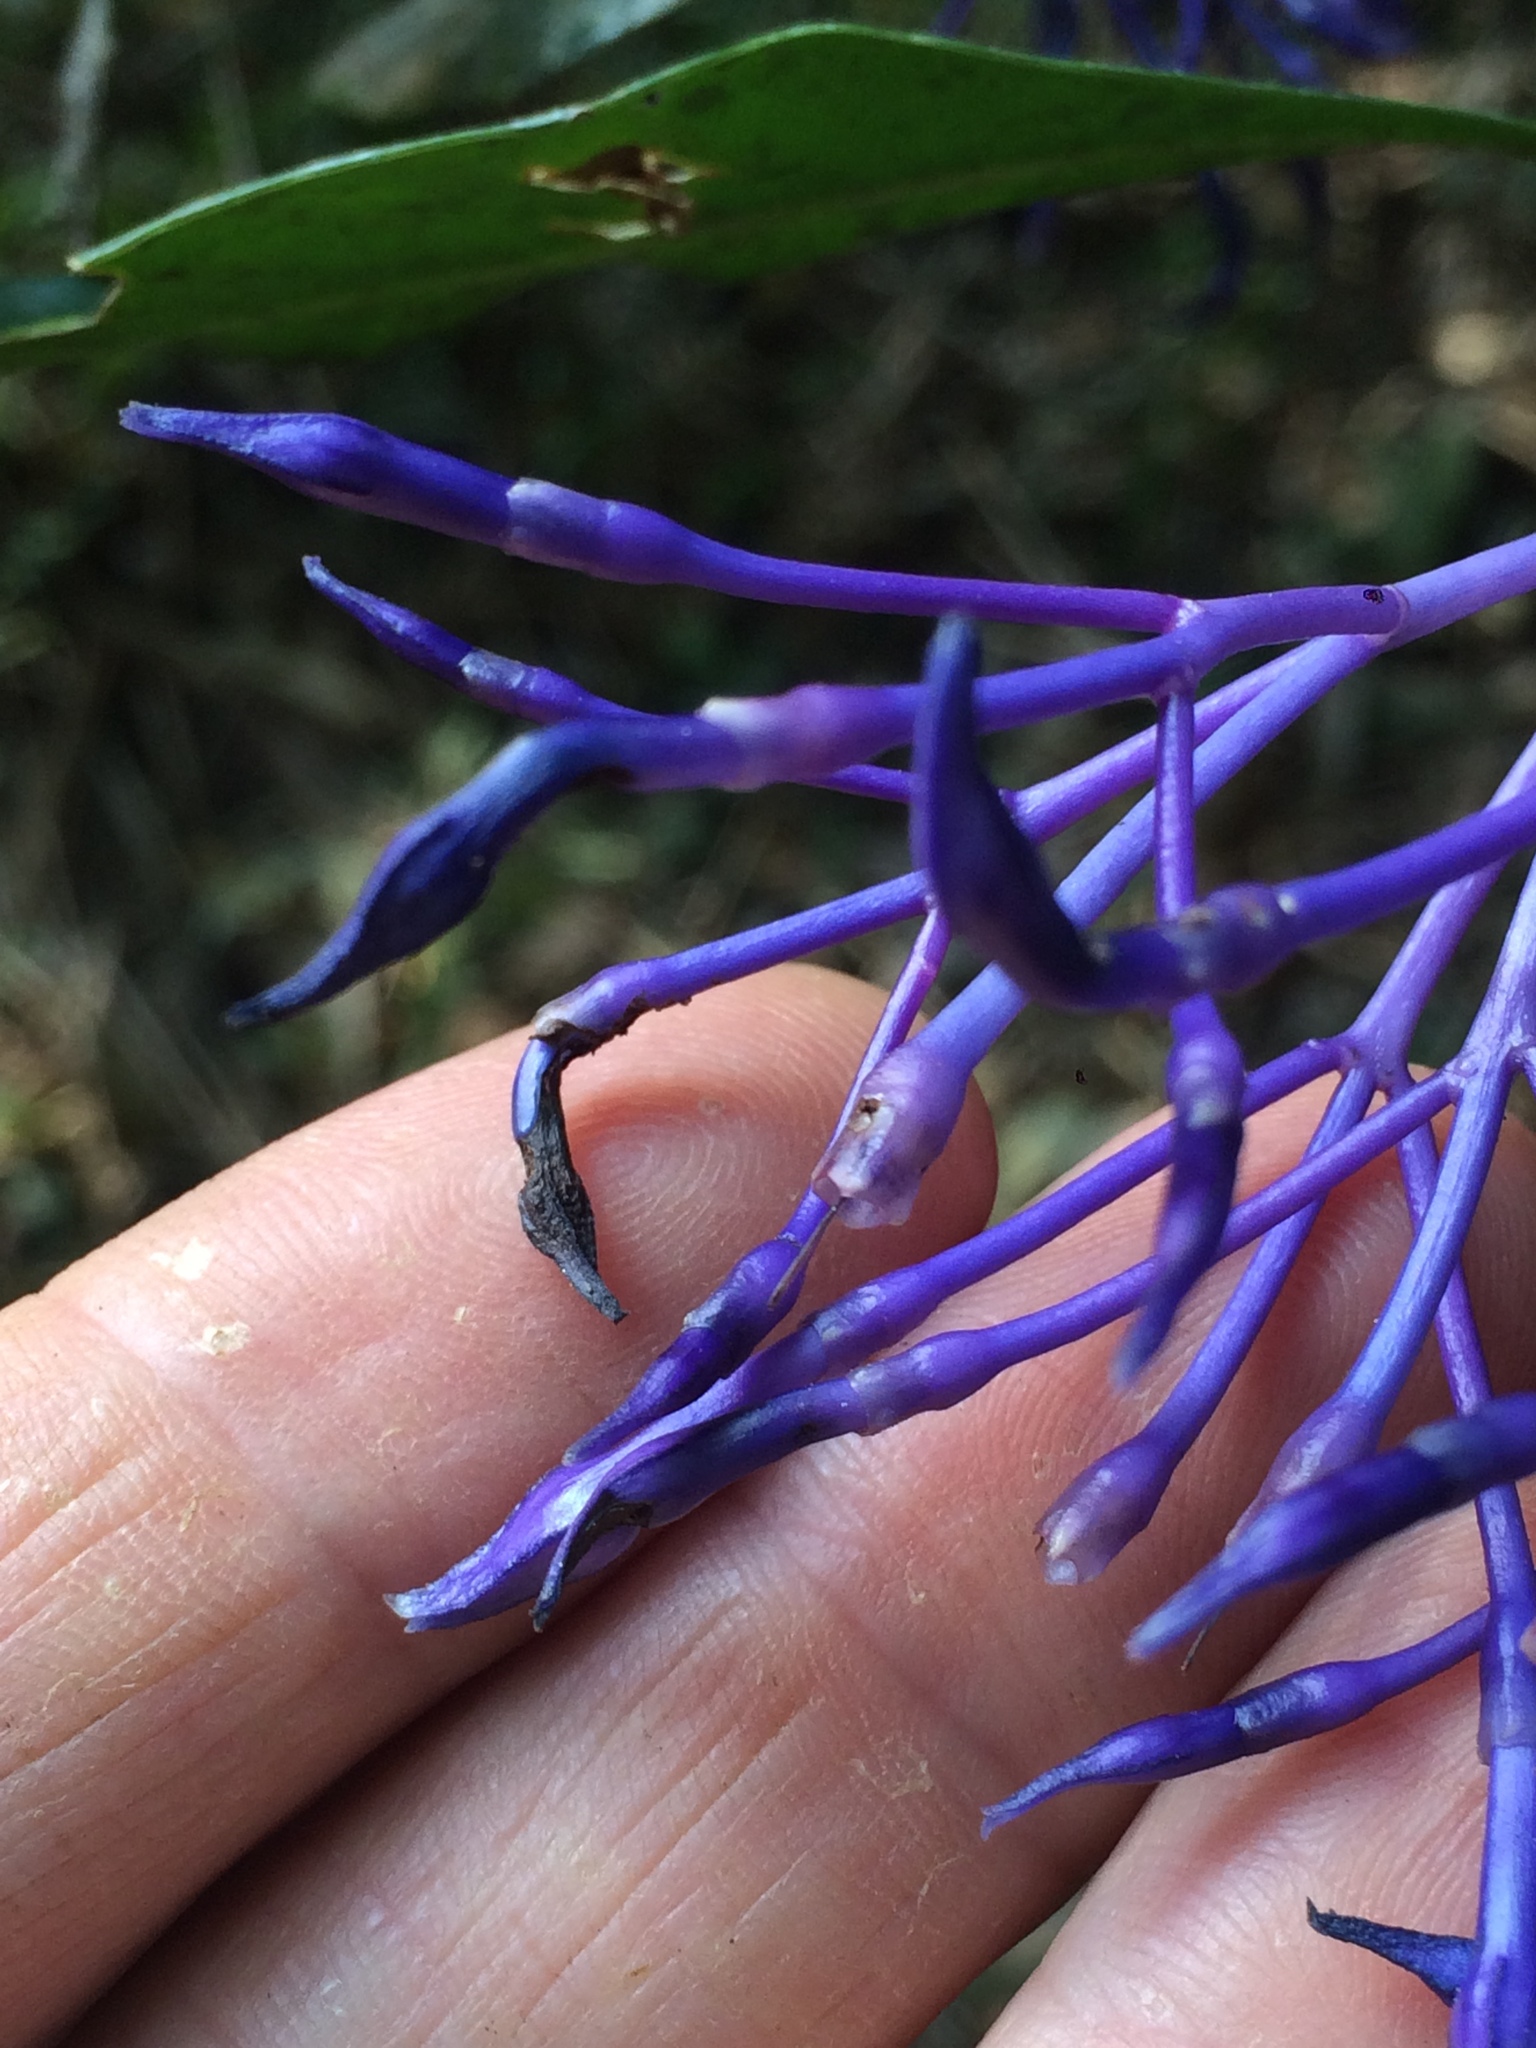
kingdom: Plantae
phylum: Tracheophyta
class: Magnoliopsida
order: Gentianales
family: Rubiaceae
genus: Faramea
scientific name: Faramea hyacinthina
